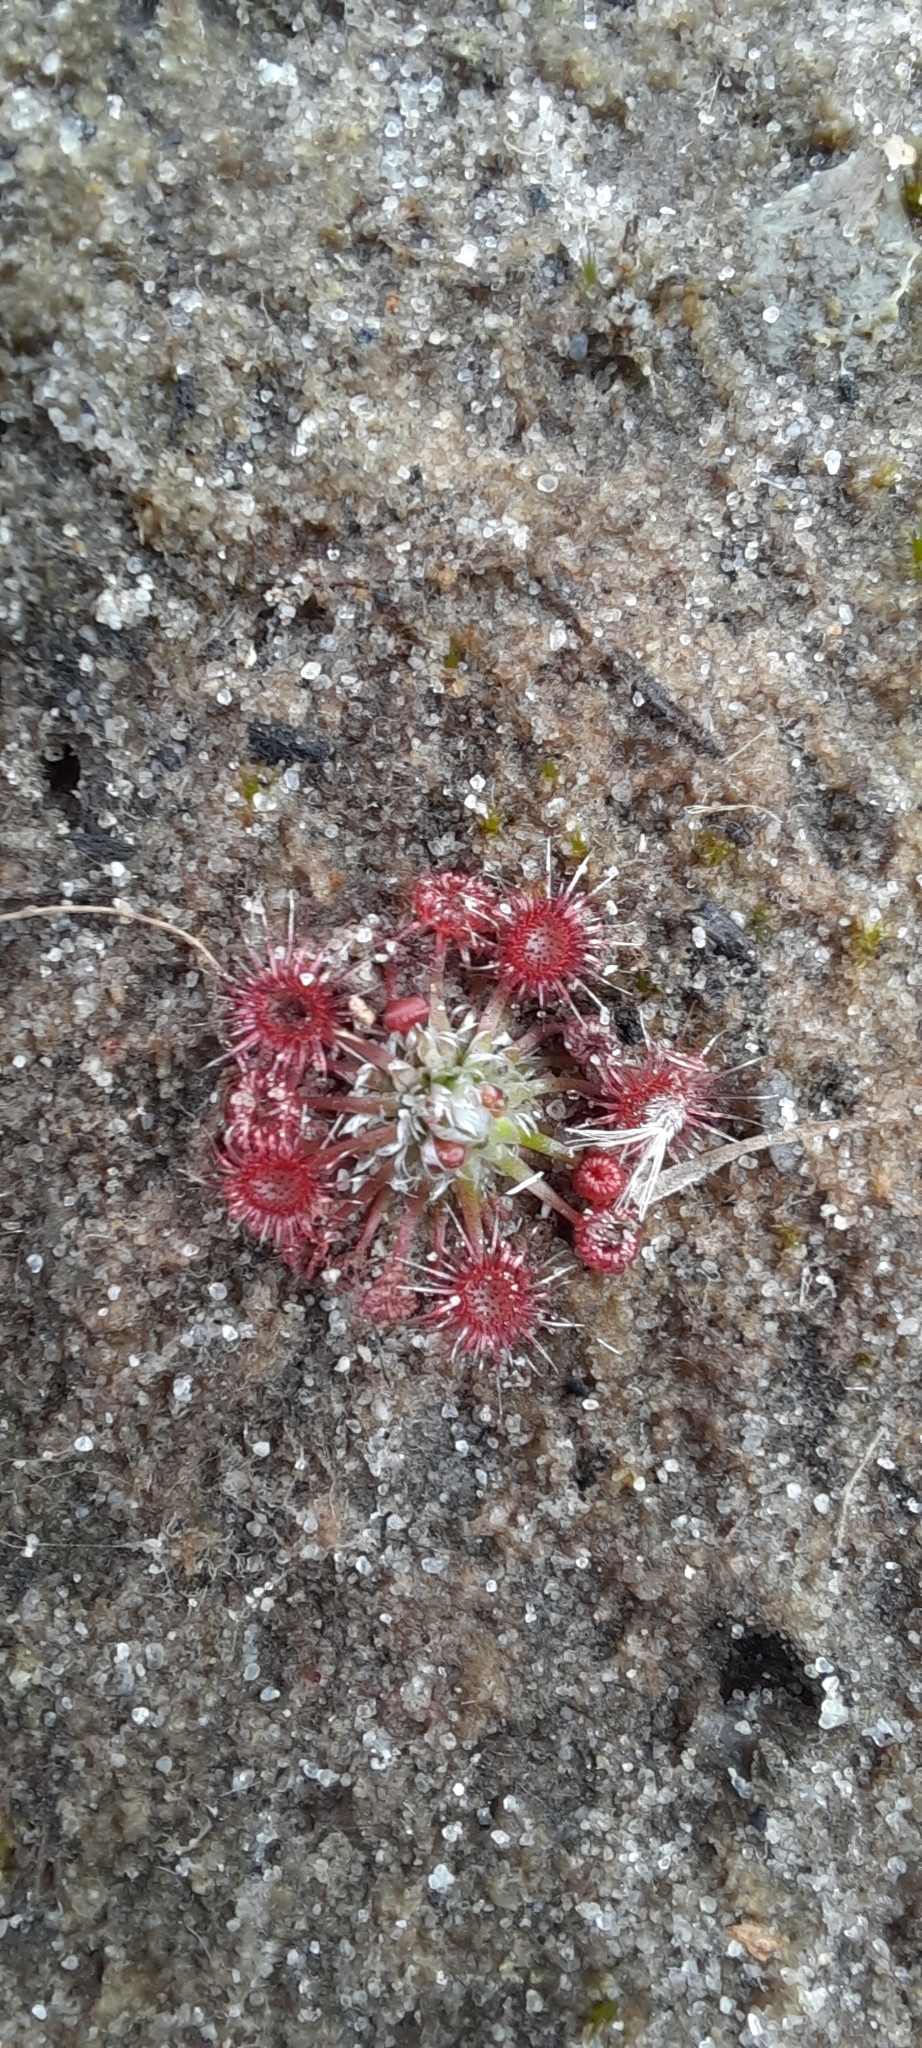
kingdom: Plantae
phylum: Tracheophyta
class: Magnoliopsida
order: Caryophyllales
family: Droseraceae
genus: Drosera
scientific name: Drosera pygmaea
